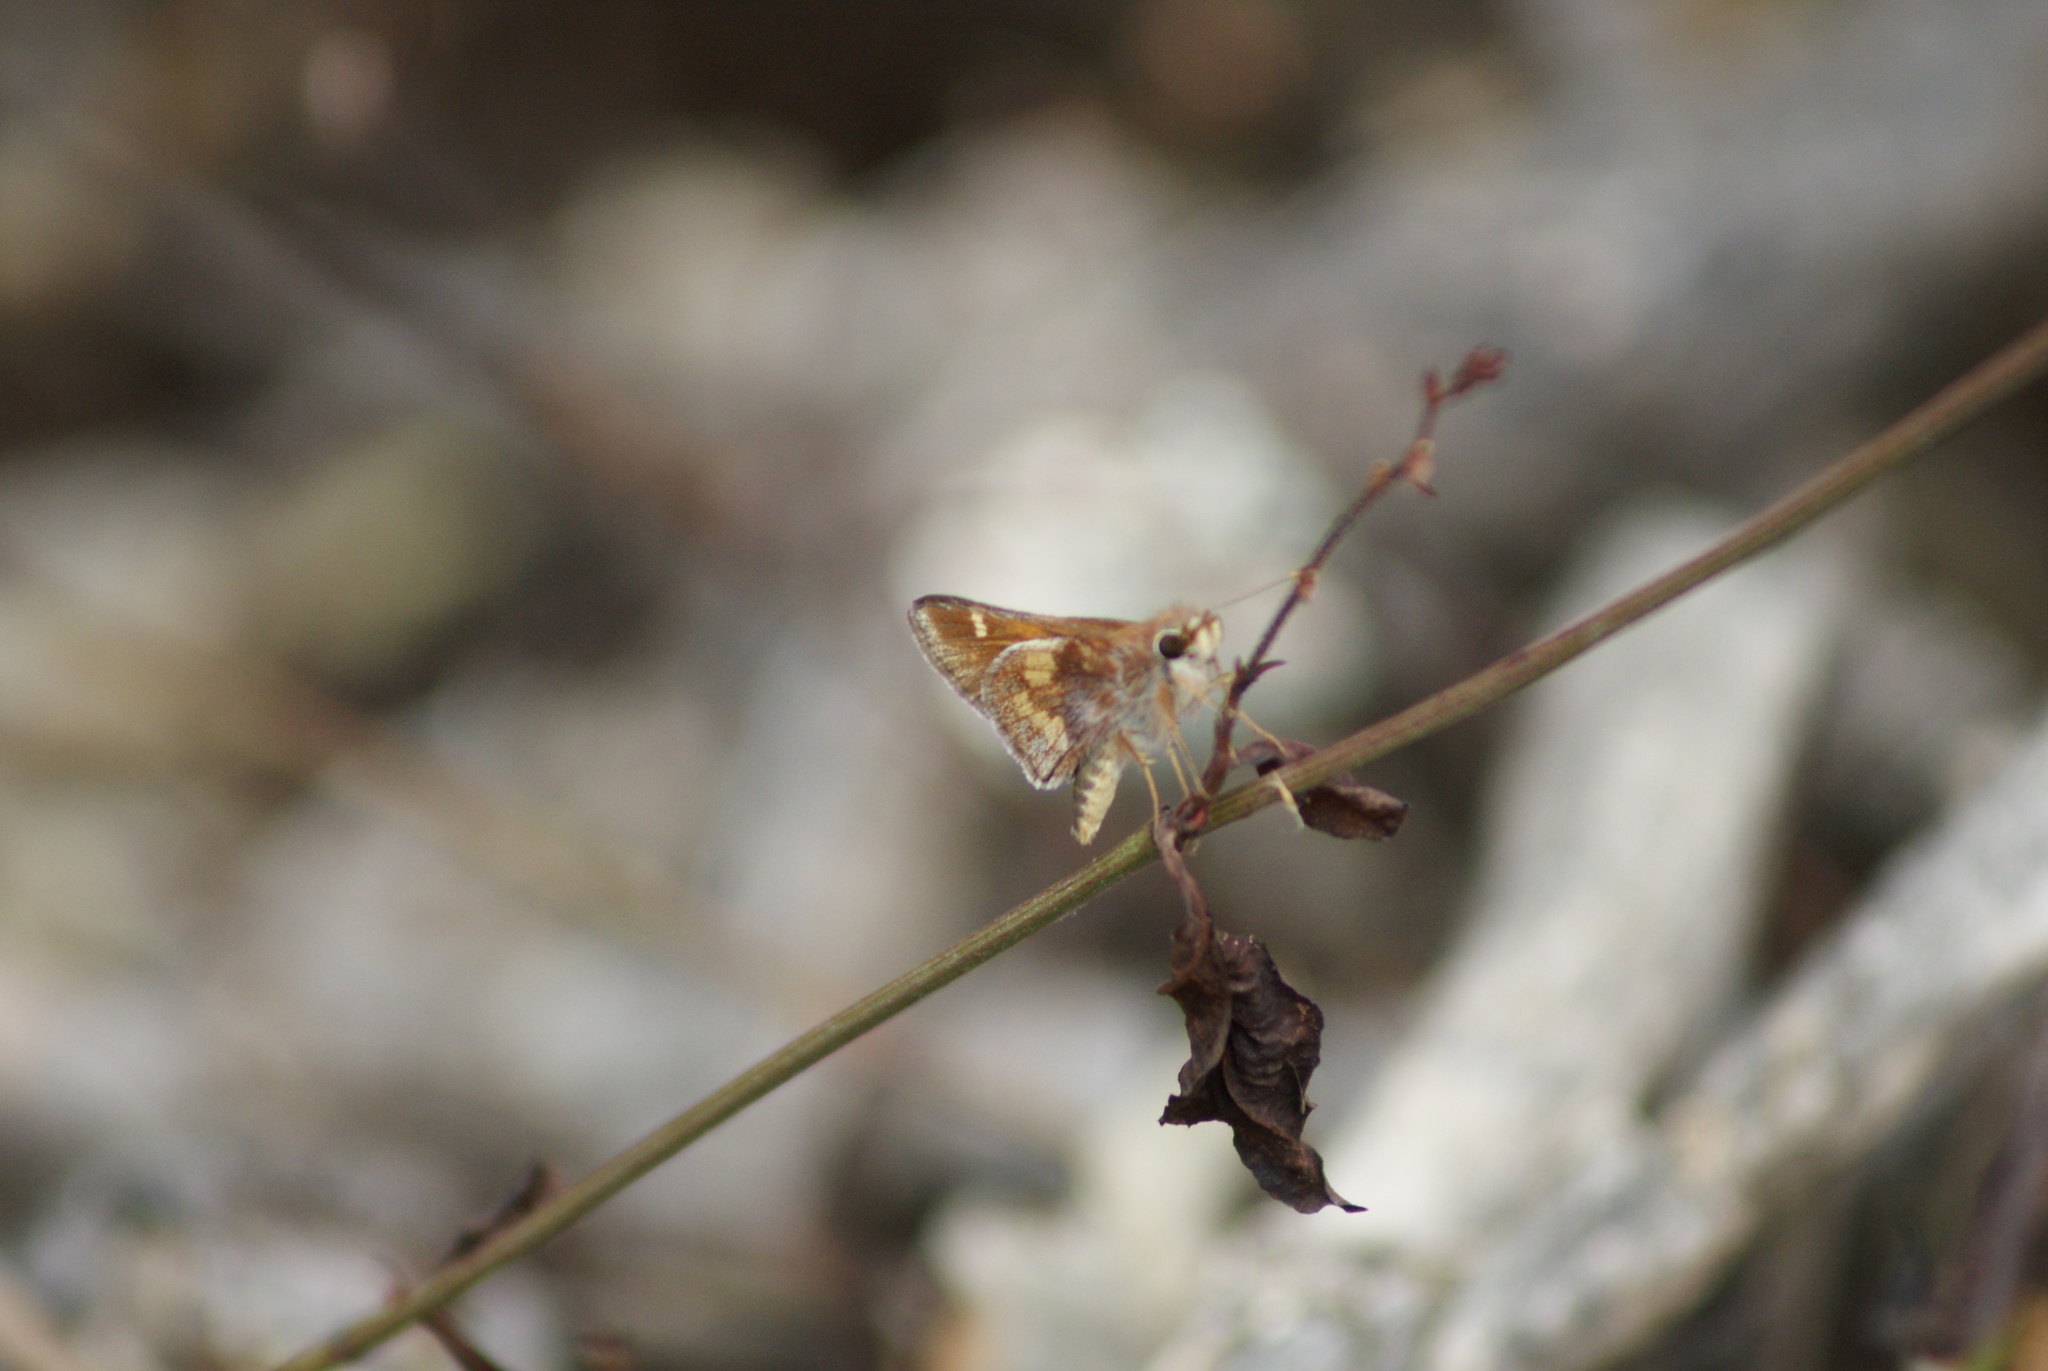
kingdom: Animalia
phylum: Arthropoda
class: Insecta
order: Lepidoptera
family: Hesperiidae
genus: Lon
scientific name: Lon
